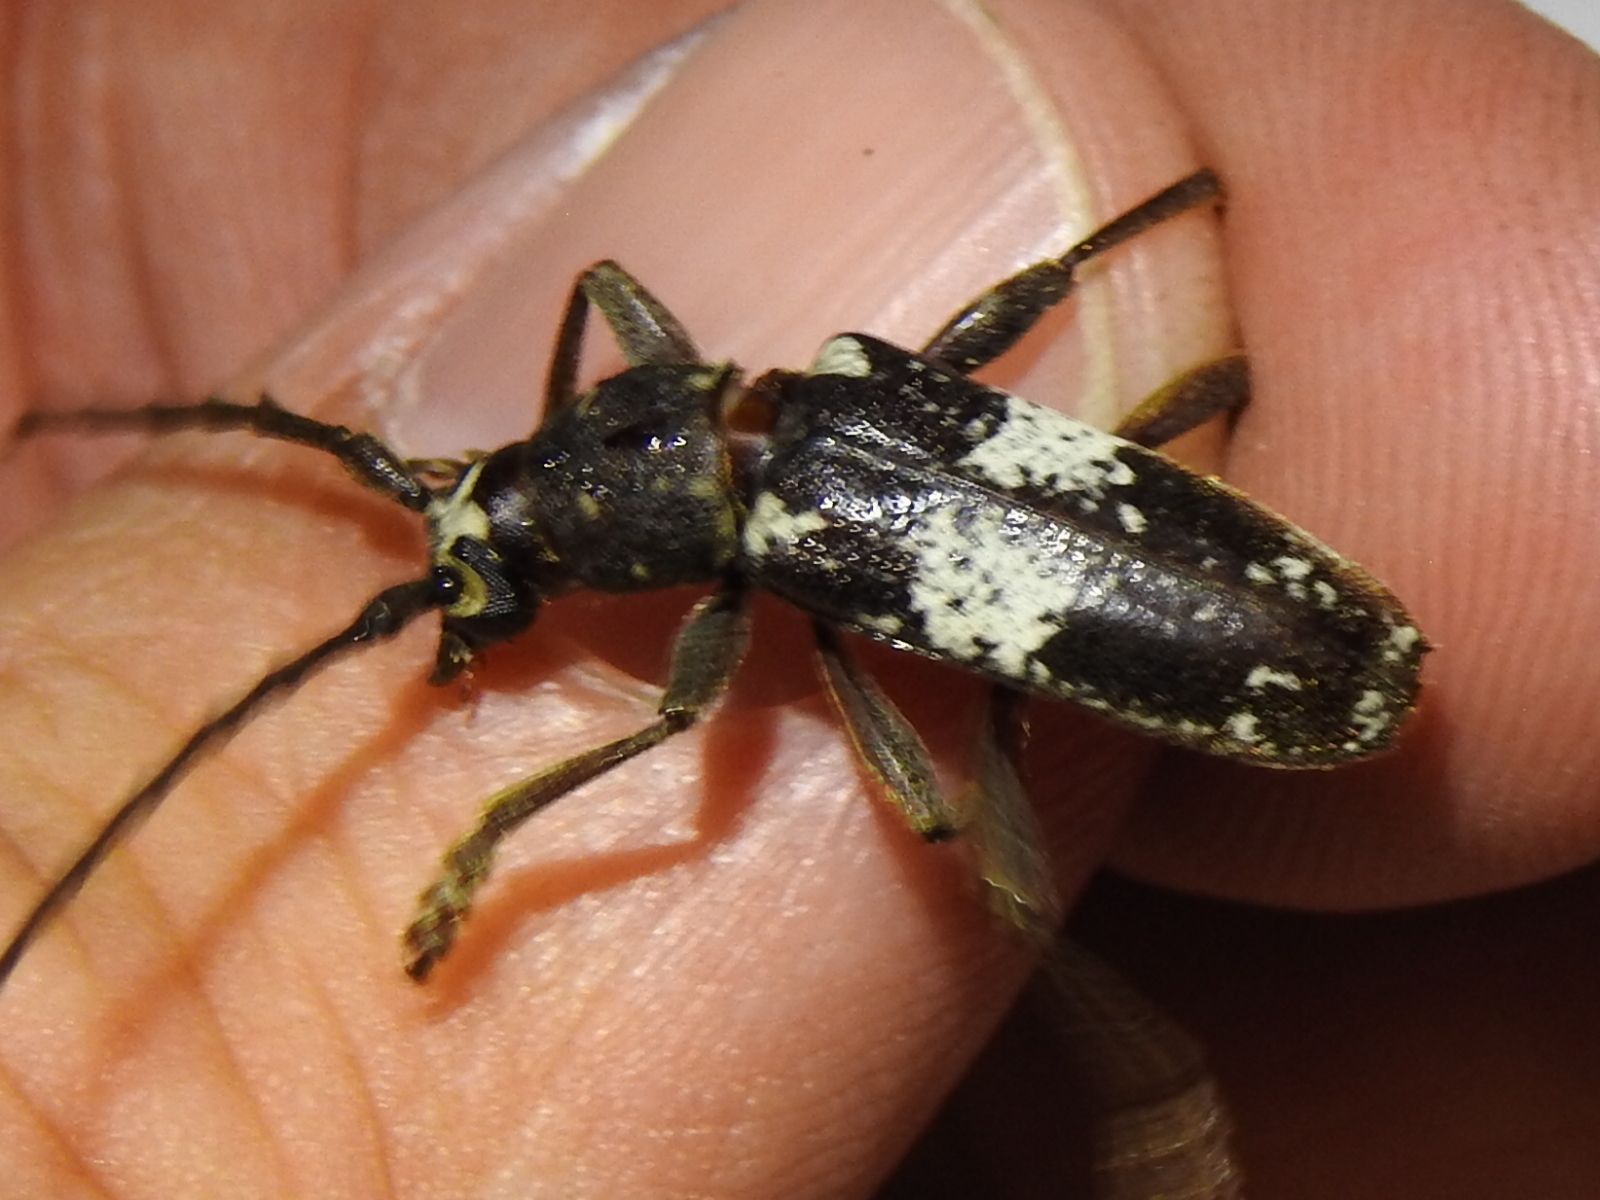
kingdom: Animalia
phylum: Arthropoda
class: Insecta
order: Coleoptera
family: Cerambycidae
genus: Enaphalodes
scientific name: Enaphalodes taeniatus
